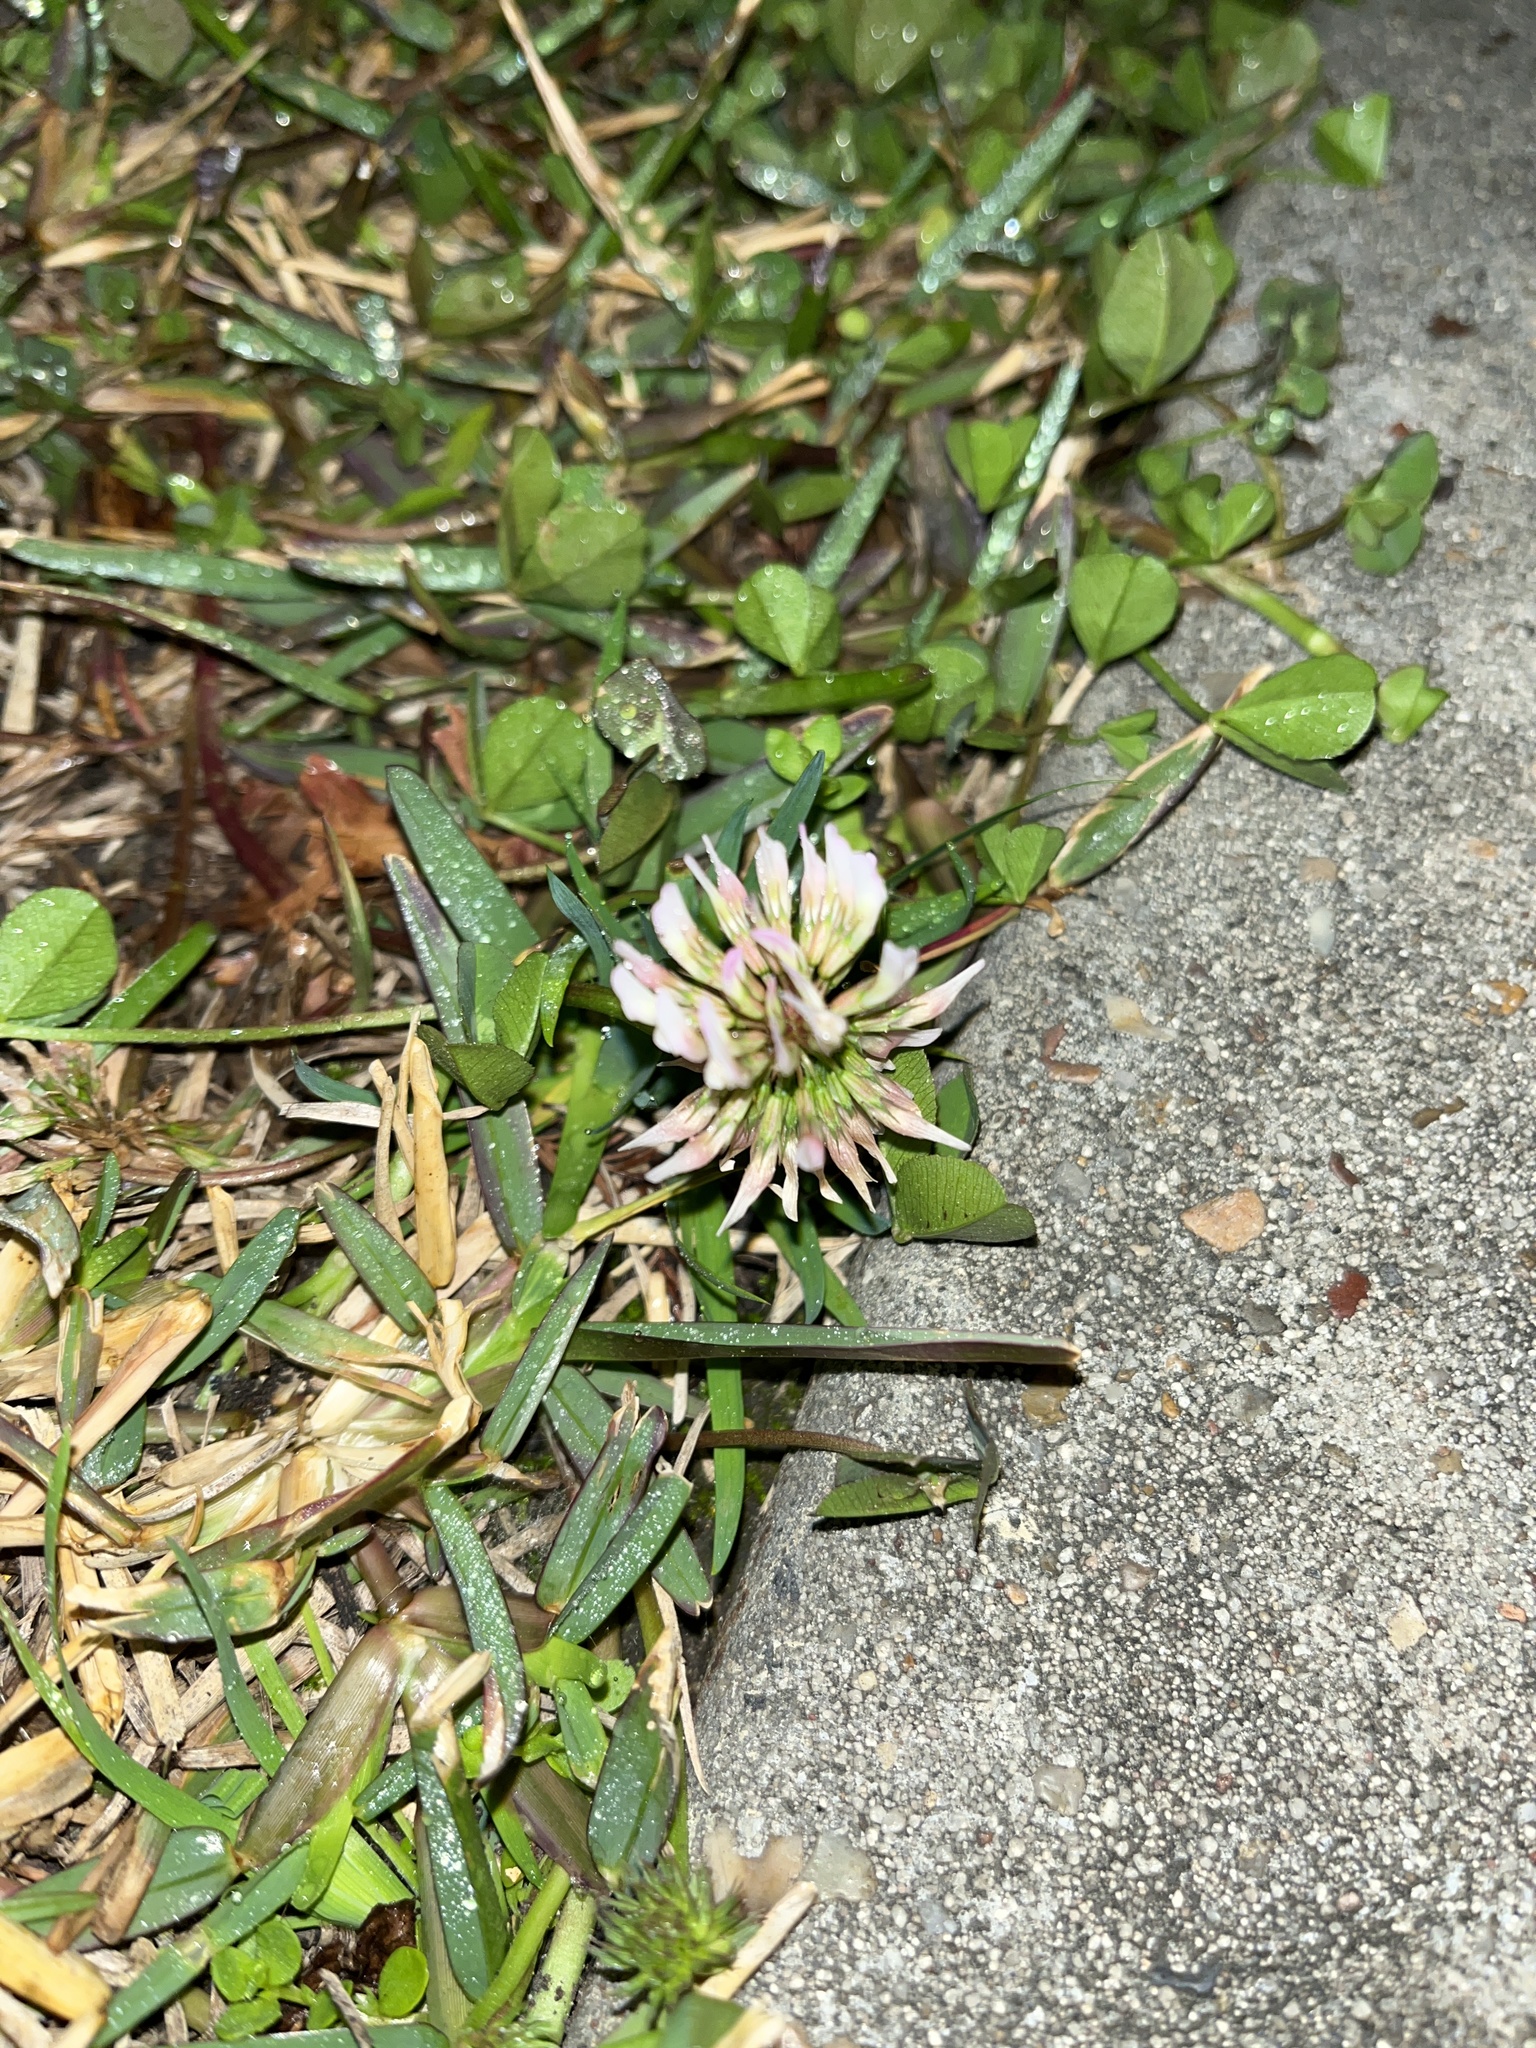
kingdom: Plantae
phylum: Tracheophyta
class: Magnoliopsida
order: Fabales
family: Fabaceae
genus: Trifolium
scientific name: Trifolium repens
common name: White clover
